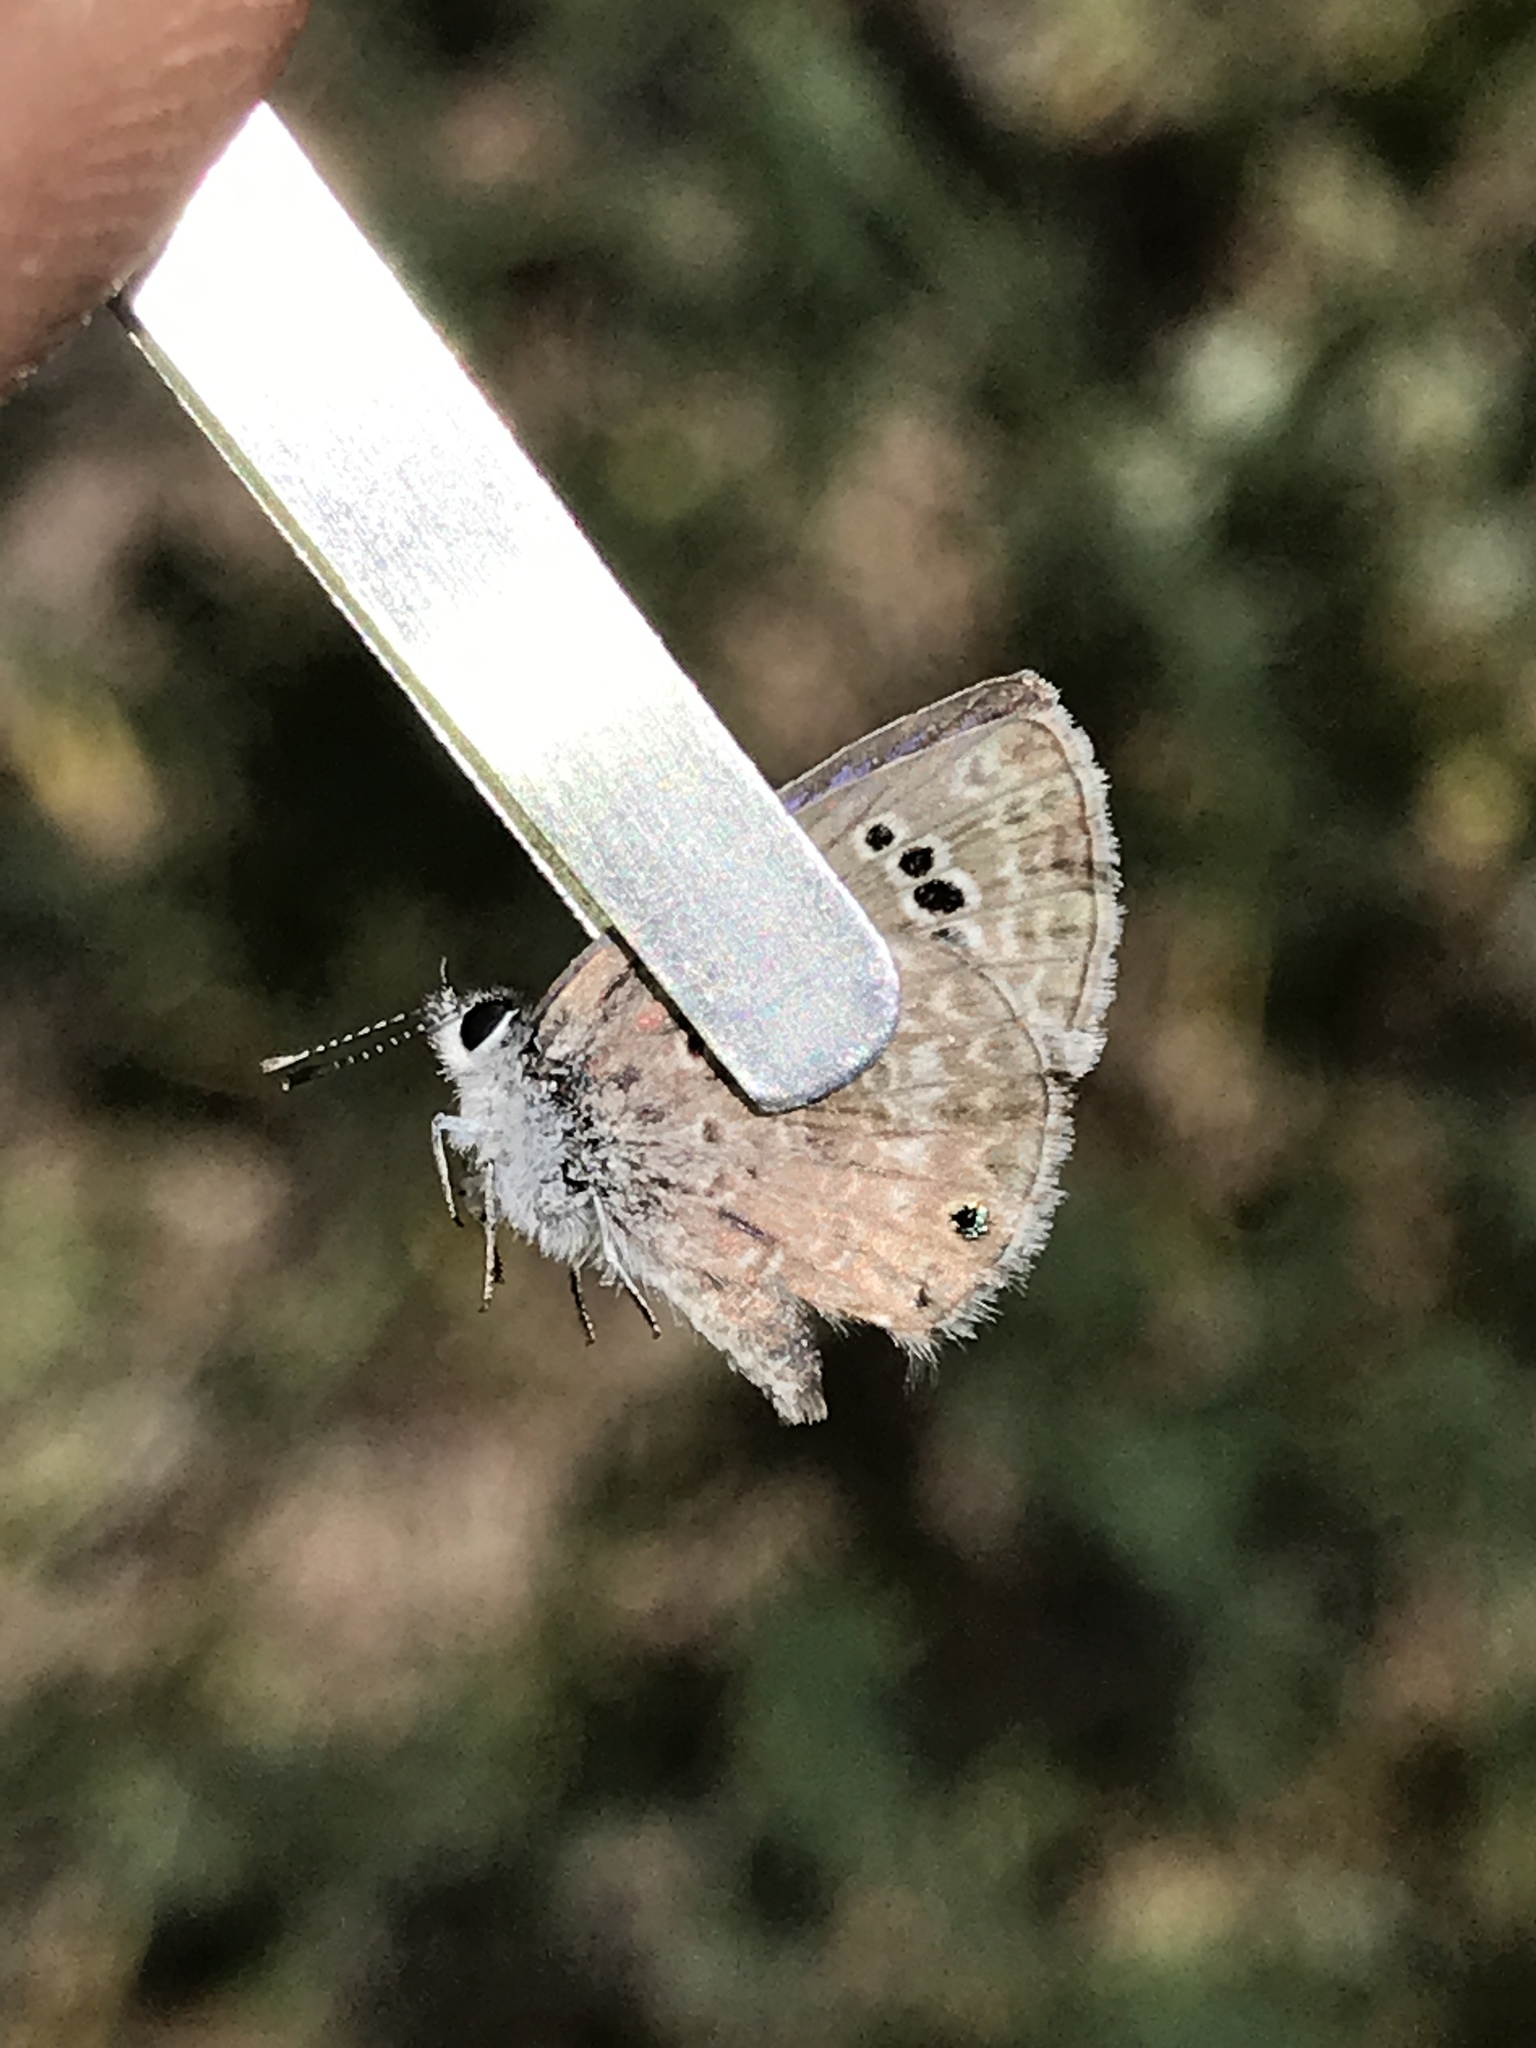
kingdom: Animalia
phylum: Arthropoda
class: Insecta
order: Lepidoptera
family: Lycaenidae
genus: Echinargus
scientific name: Echinargus isola
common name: Reakirt's blue
